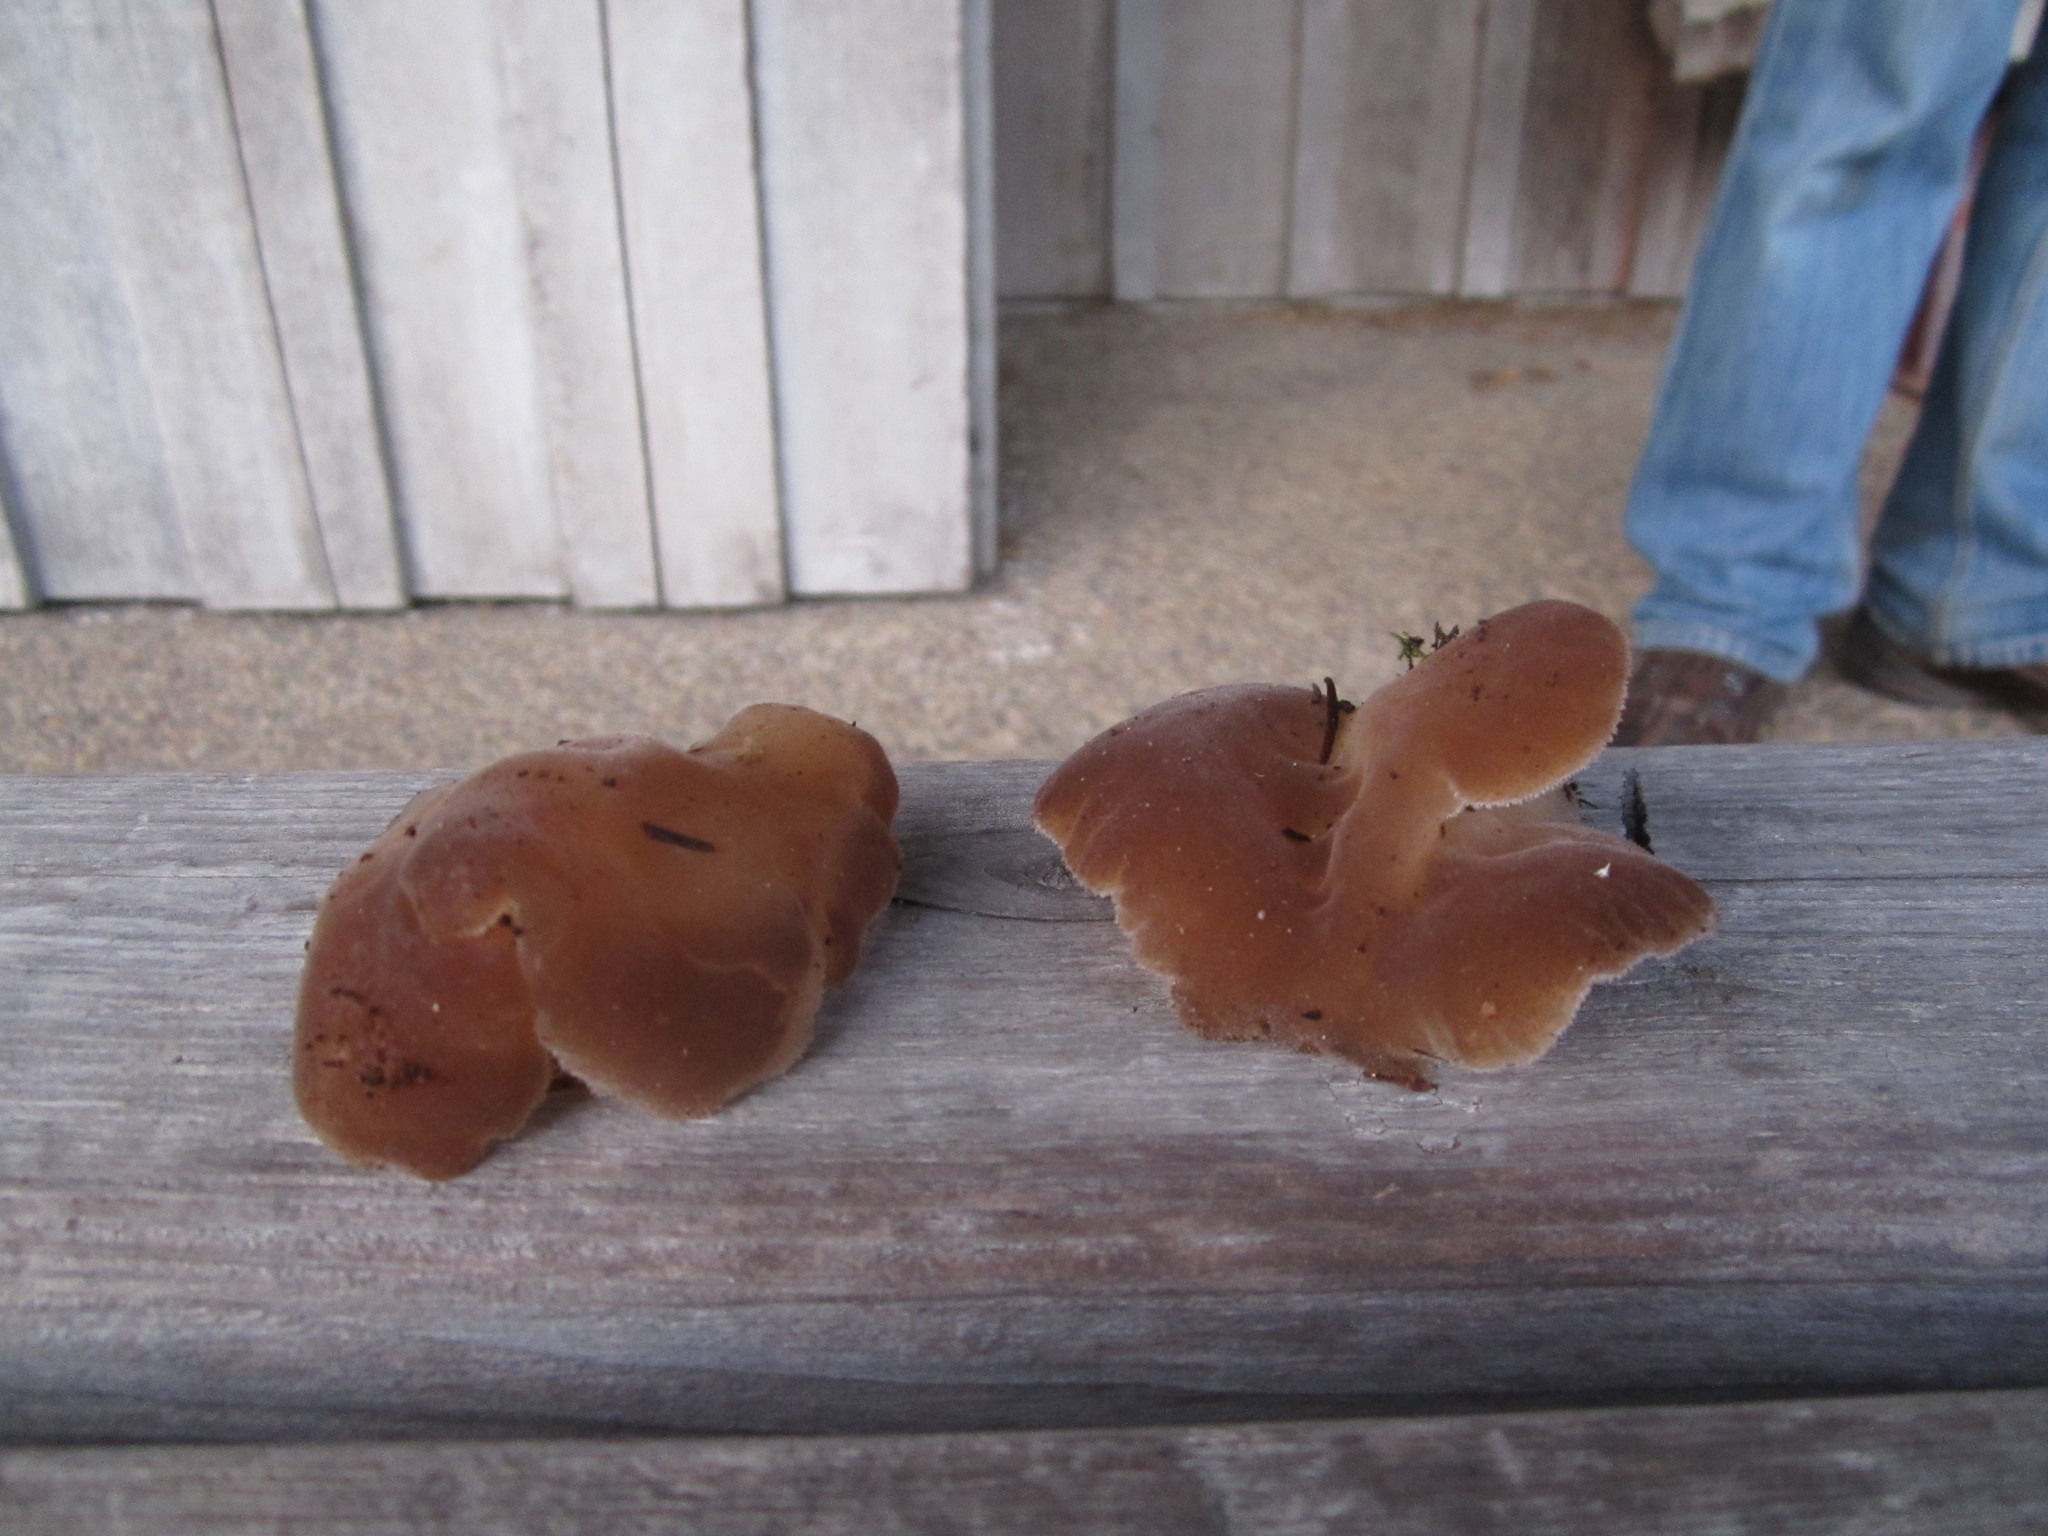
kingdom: Fungi
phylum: Basidiomycota
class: Agaricomycetes
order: Auriculariales
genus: Pseudohydnum
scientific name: Pseudohydnum gelatinosum
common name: Jelly tongue
